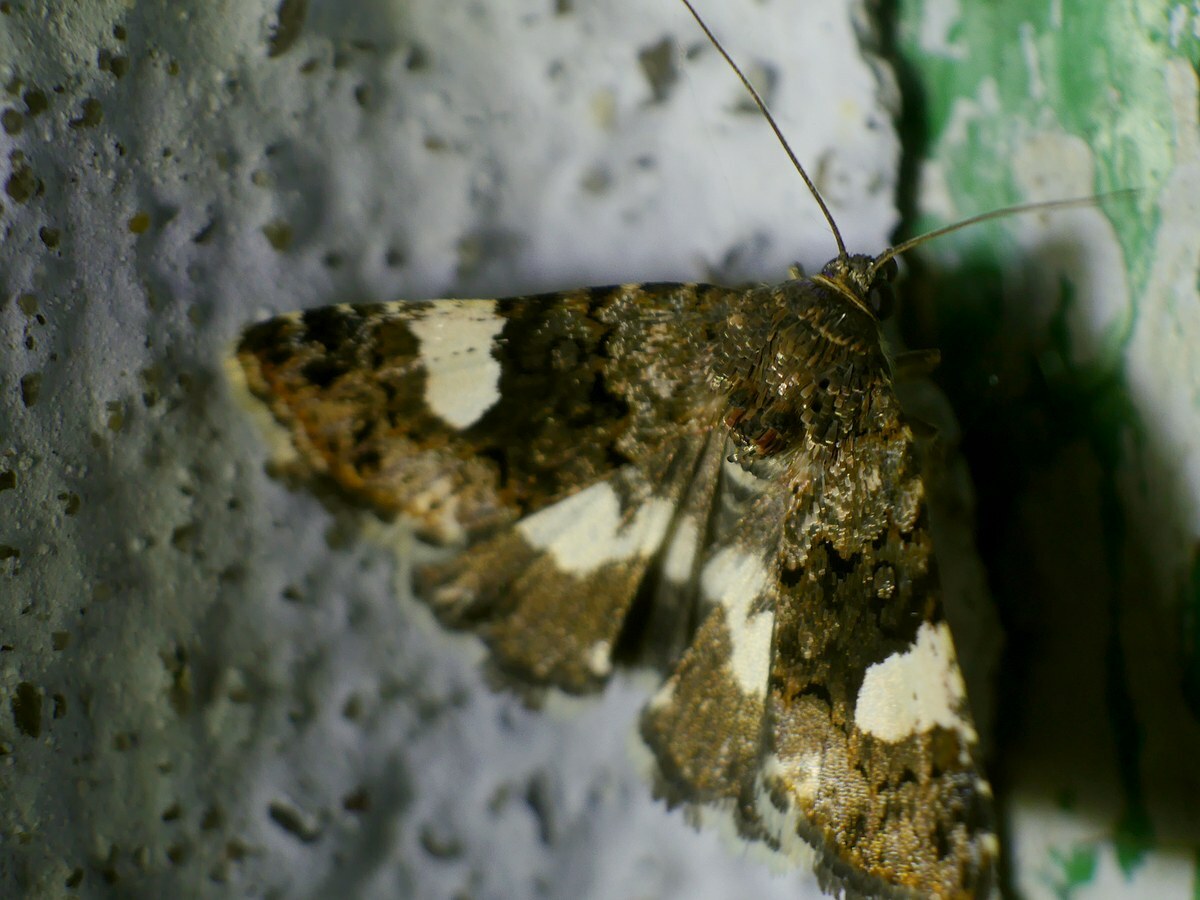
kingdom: Animalia
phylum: Arthropoda
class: Insecta
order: Lepidoptera
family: Erebidae
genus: Tyta
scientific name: Tyta luctuosa
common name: Four-spotted
